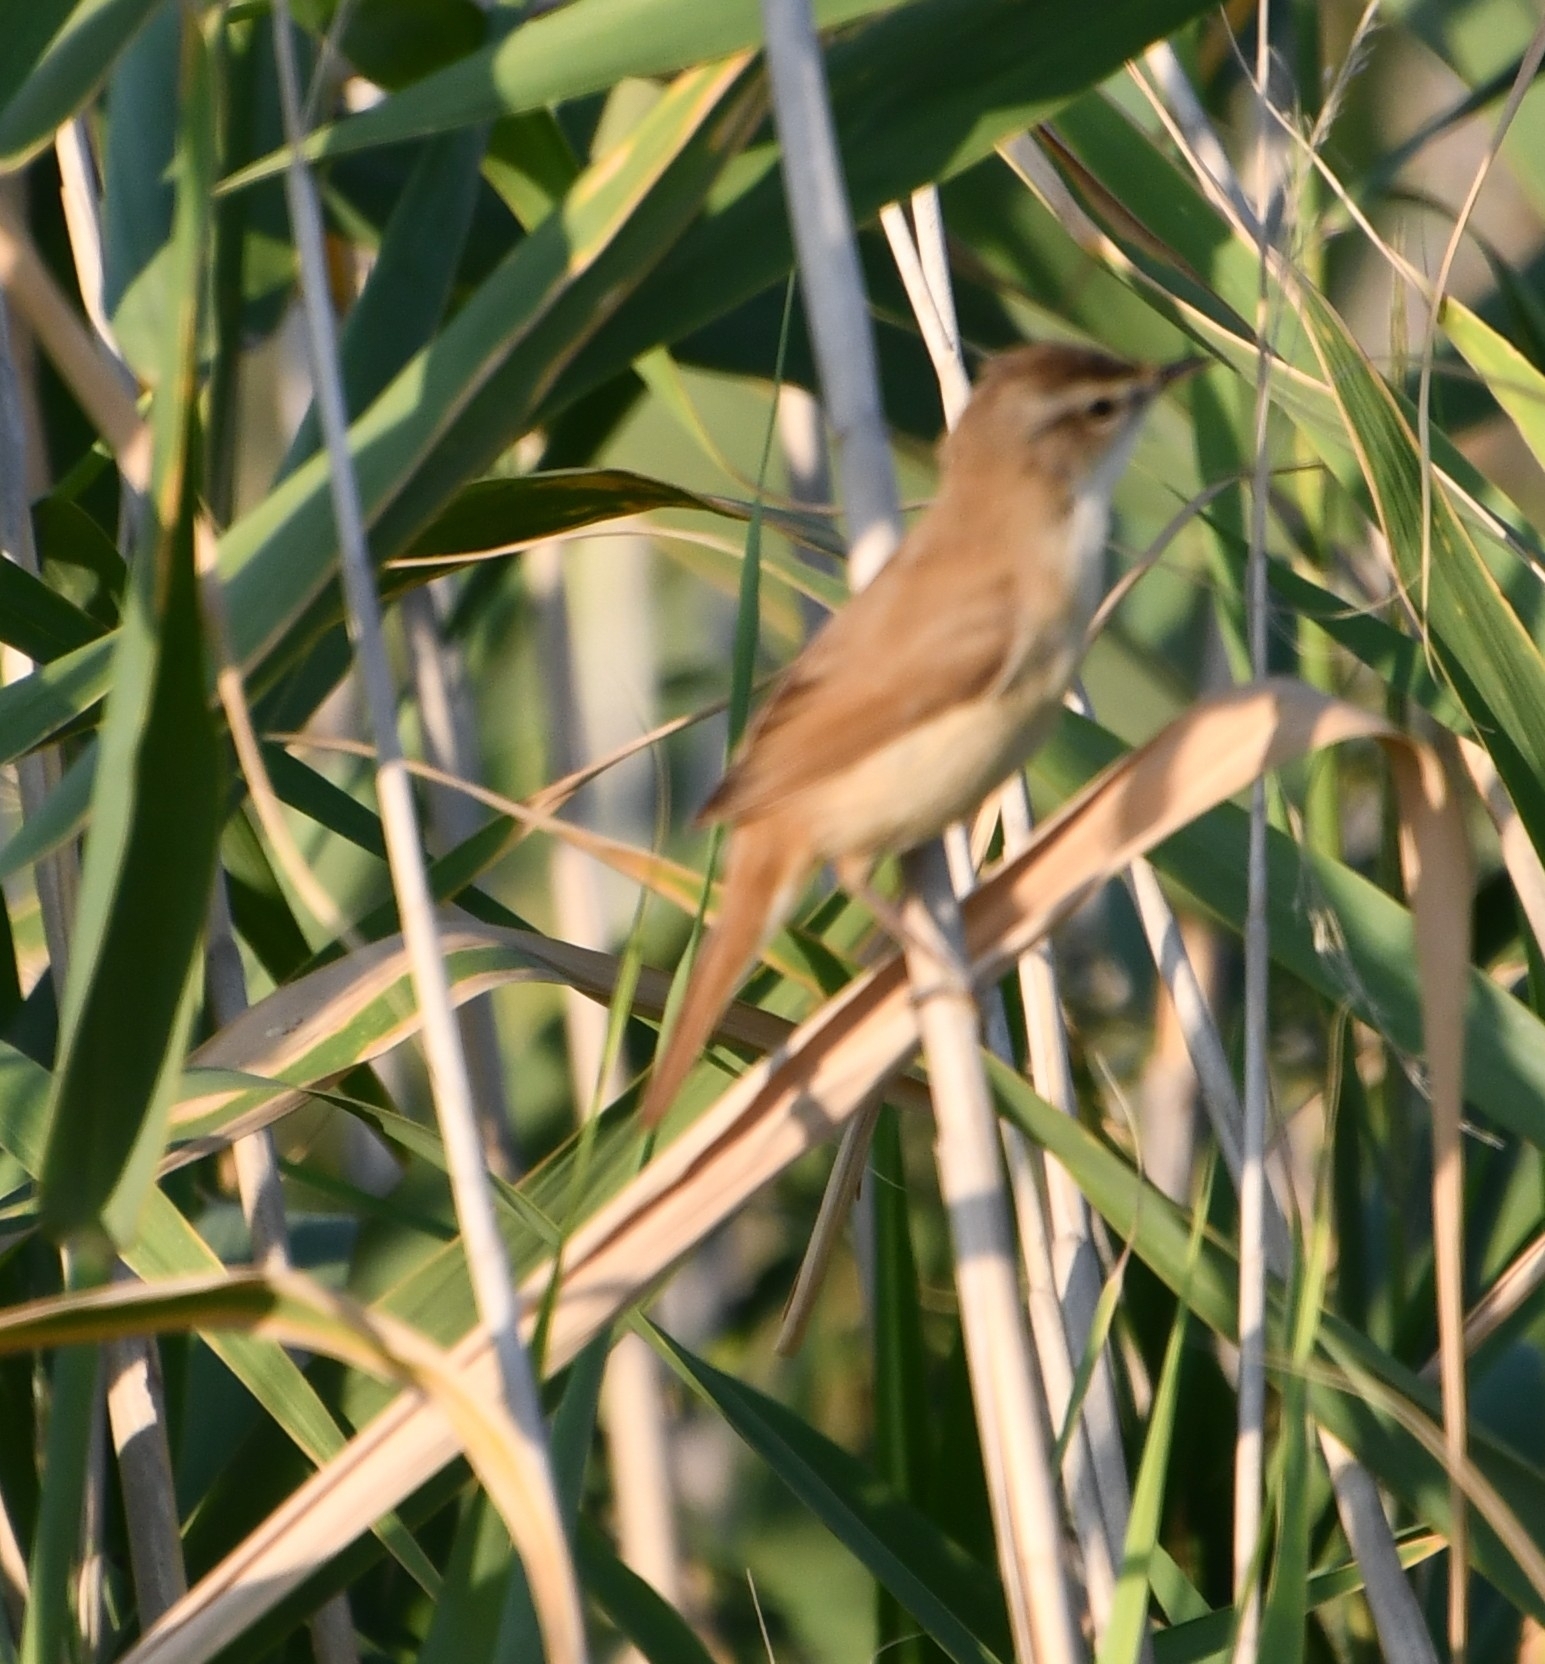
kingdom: Animalia
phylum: Chordata
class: Aves
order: Passeriformes
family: Acrocephalidae
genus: Acrocephalus
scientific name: Acrocephalus agricola
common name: Paddyfield warbler
